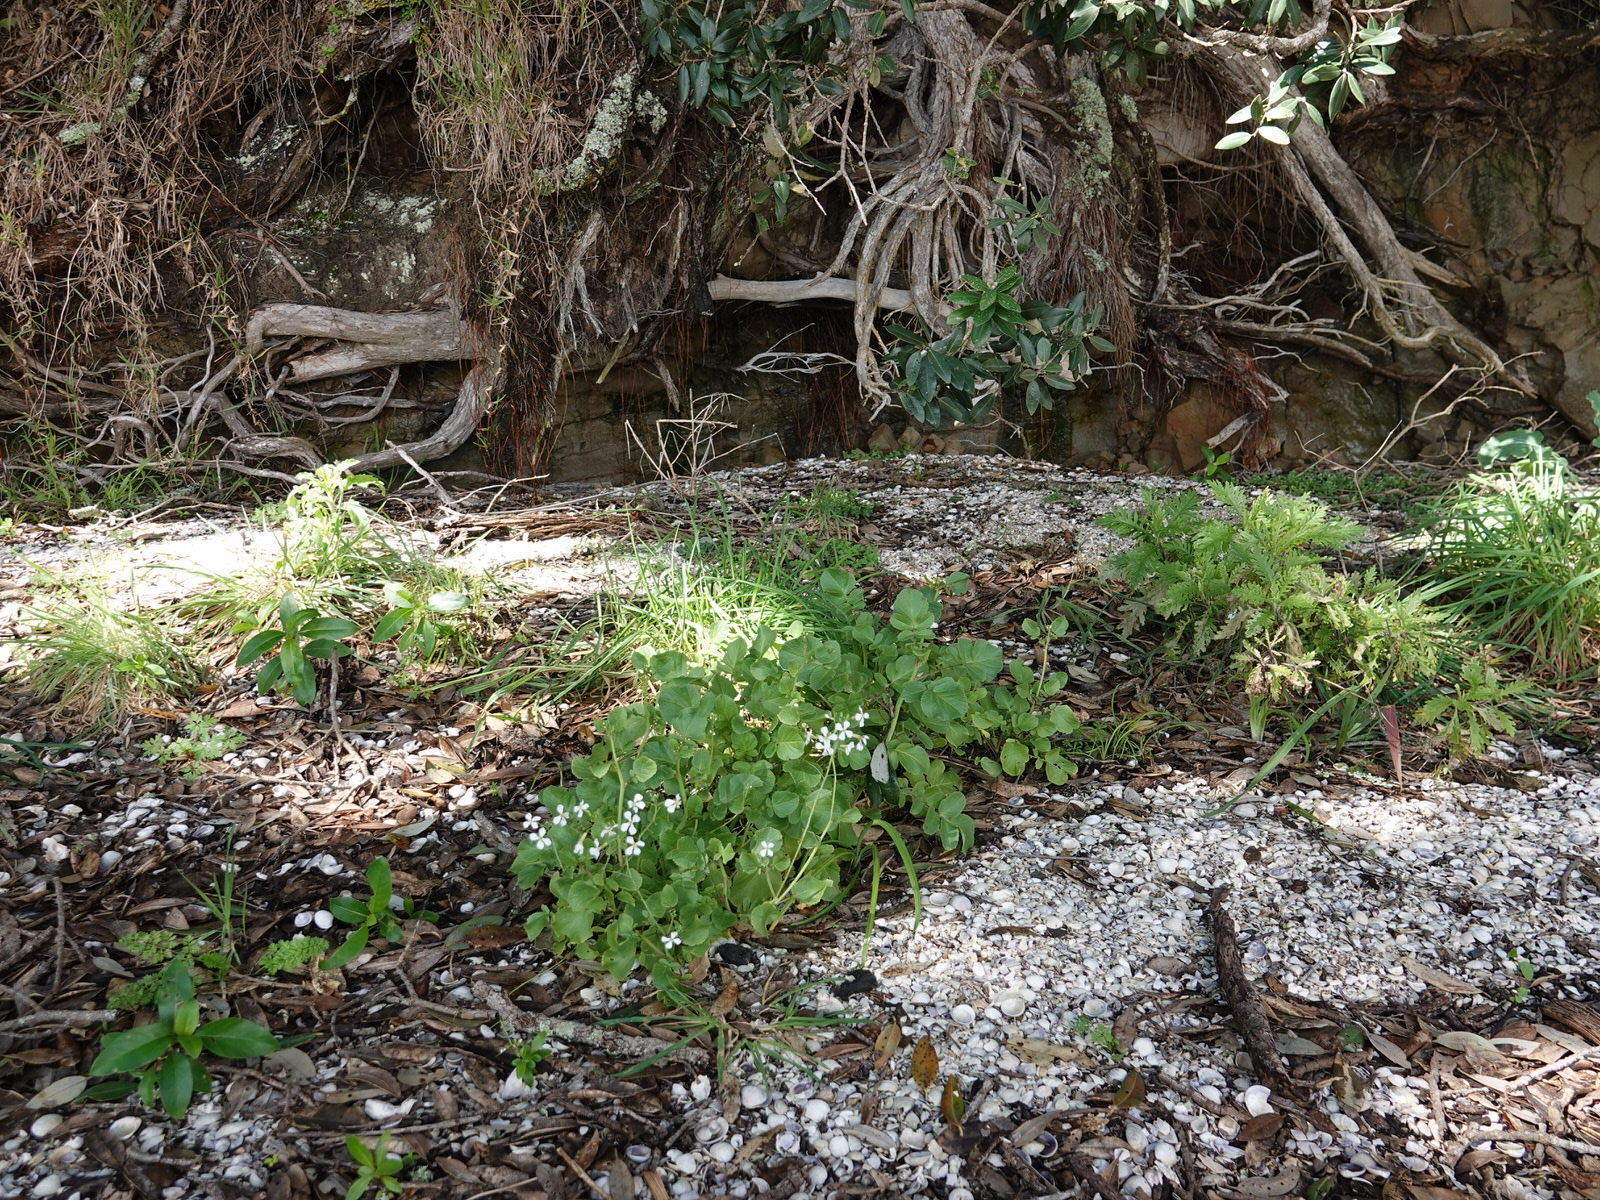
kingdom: Plantae
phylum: Tracheophyta
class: Magnoliopsida
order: Brassicales
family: Brassicaceae
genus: Raphanus
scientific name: Raphanus raphanistrum
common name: Wild radish
